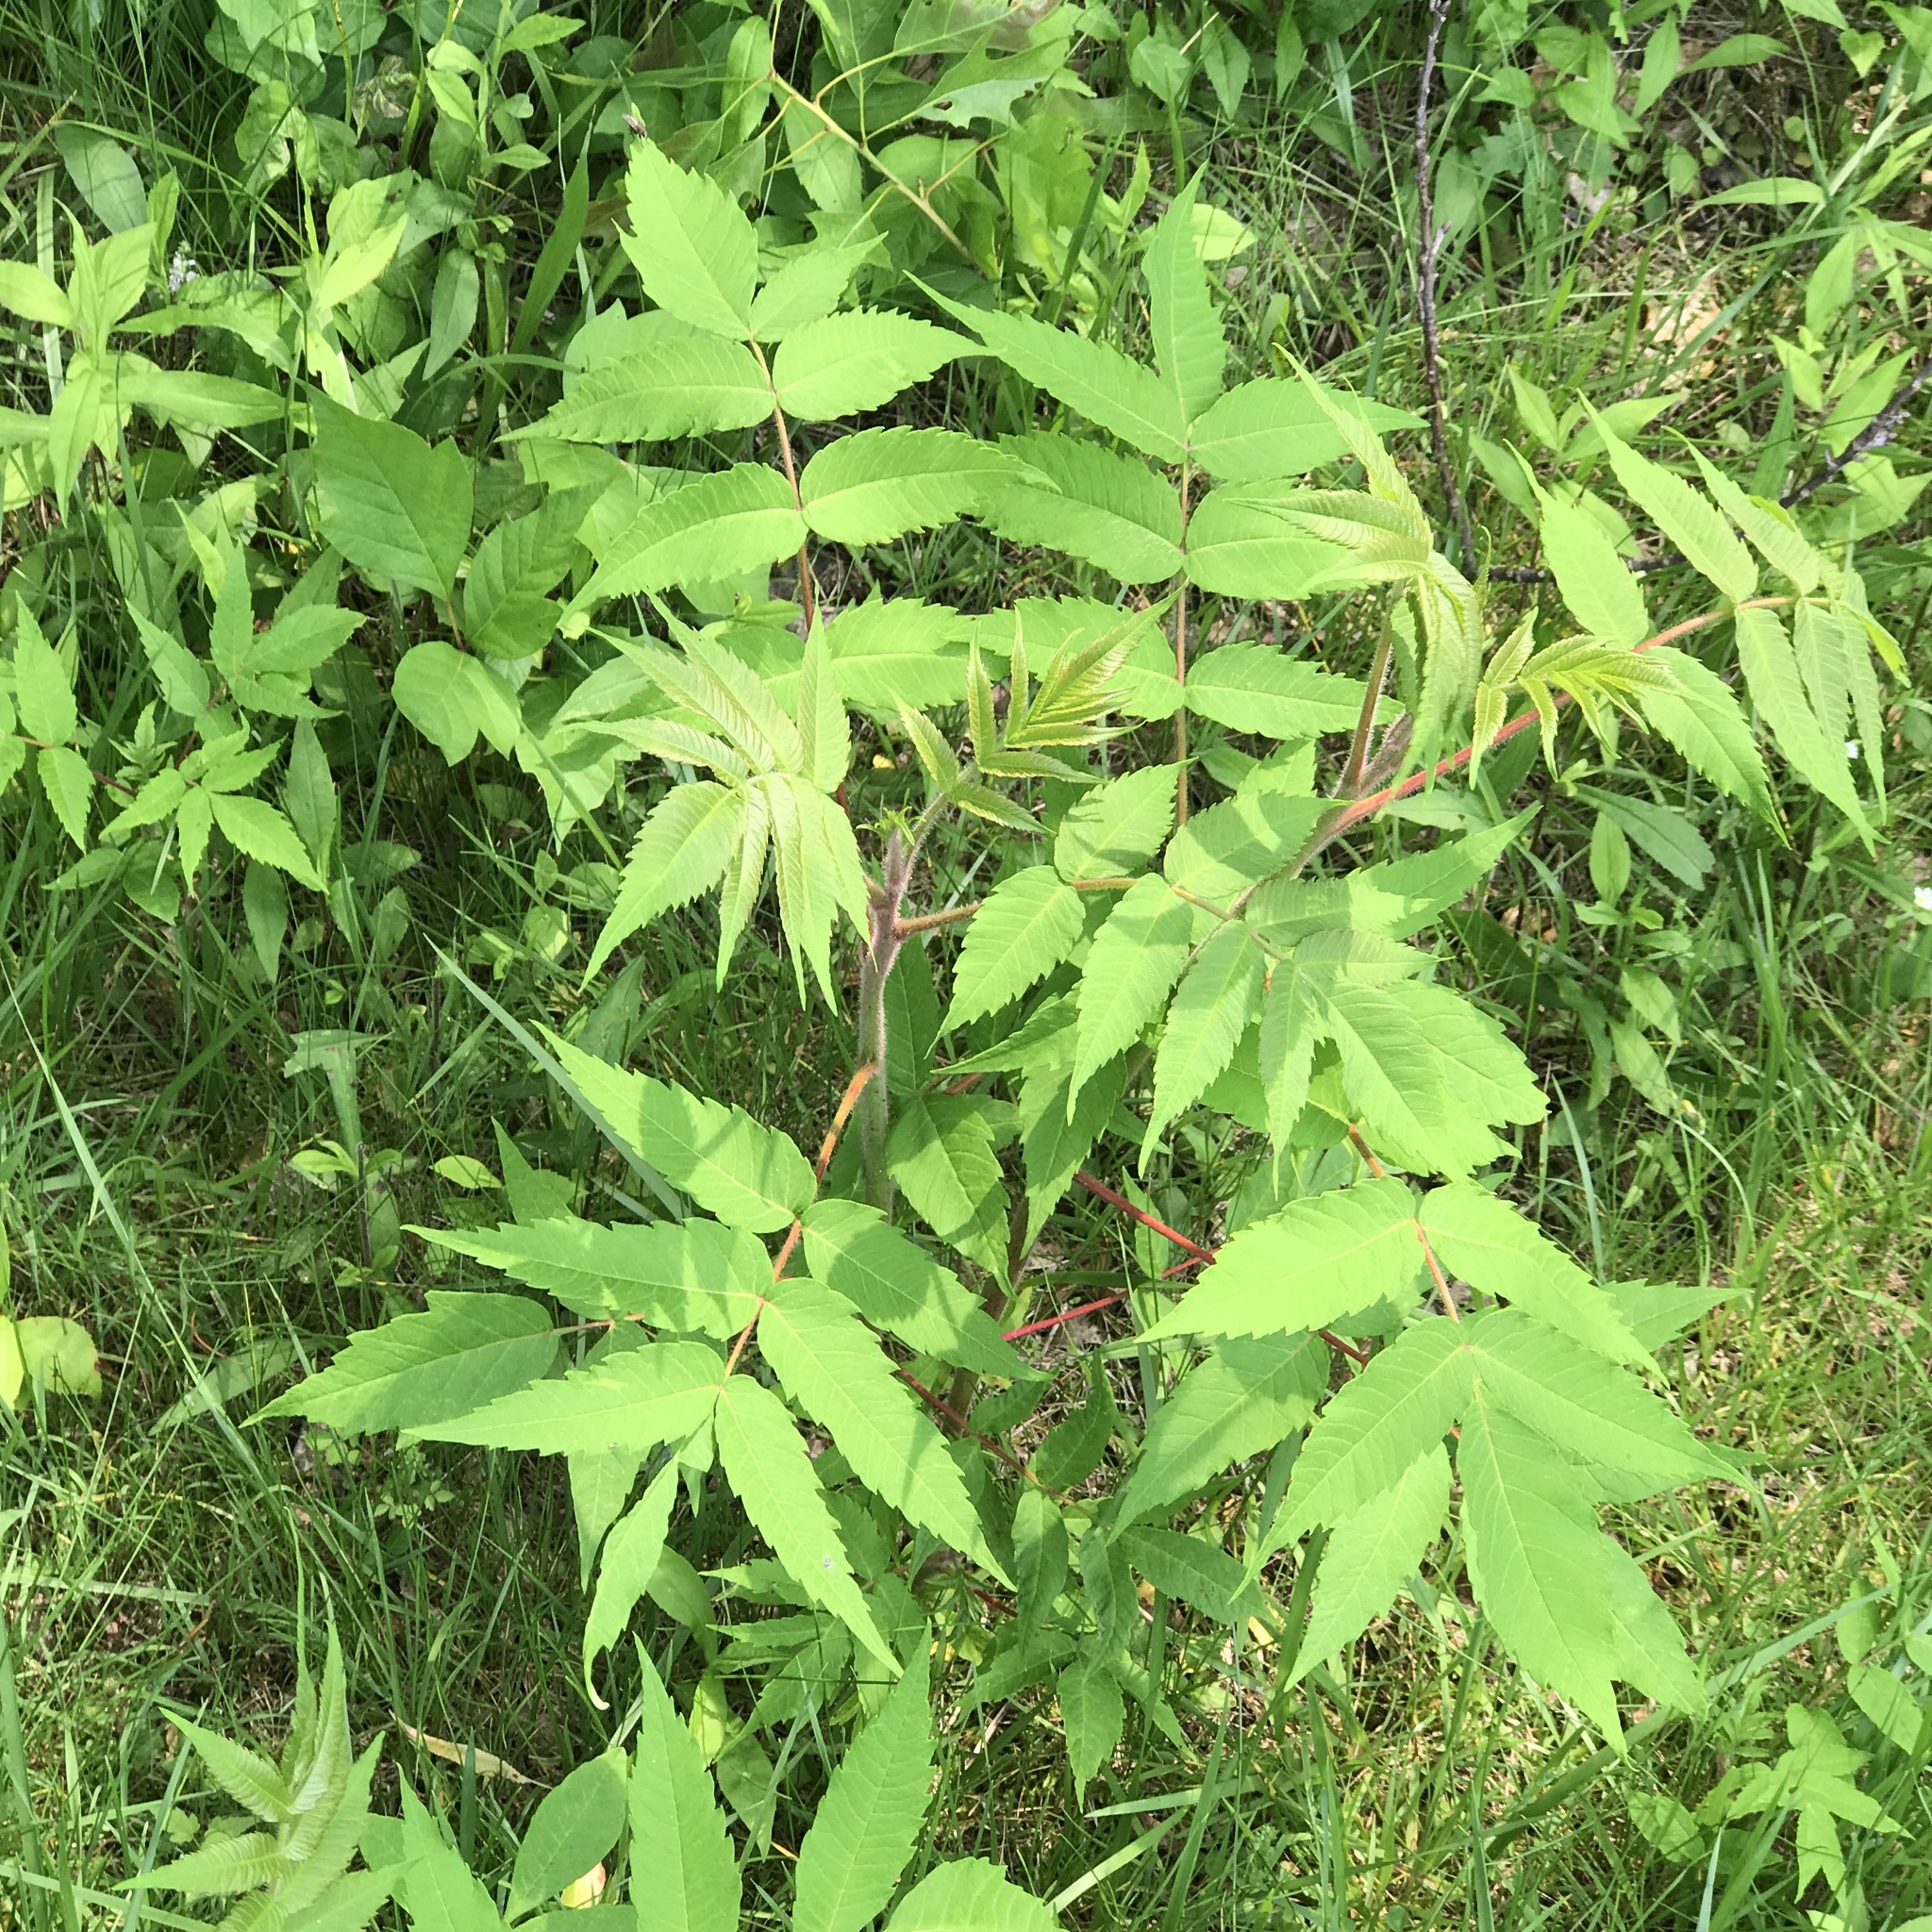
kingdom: Plantae
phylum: Tracheophyta
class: Magnoliopsida
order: Sapindales
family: Anacardiaceae
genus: Rhus
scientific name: Rhus typhina
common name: Staghorn sumac
